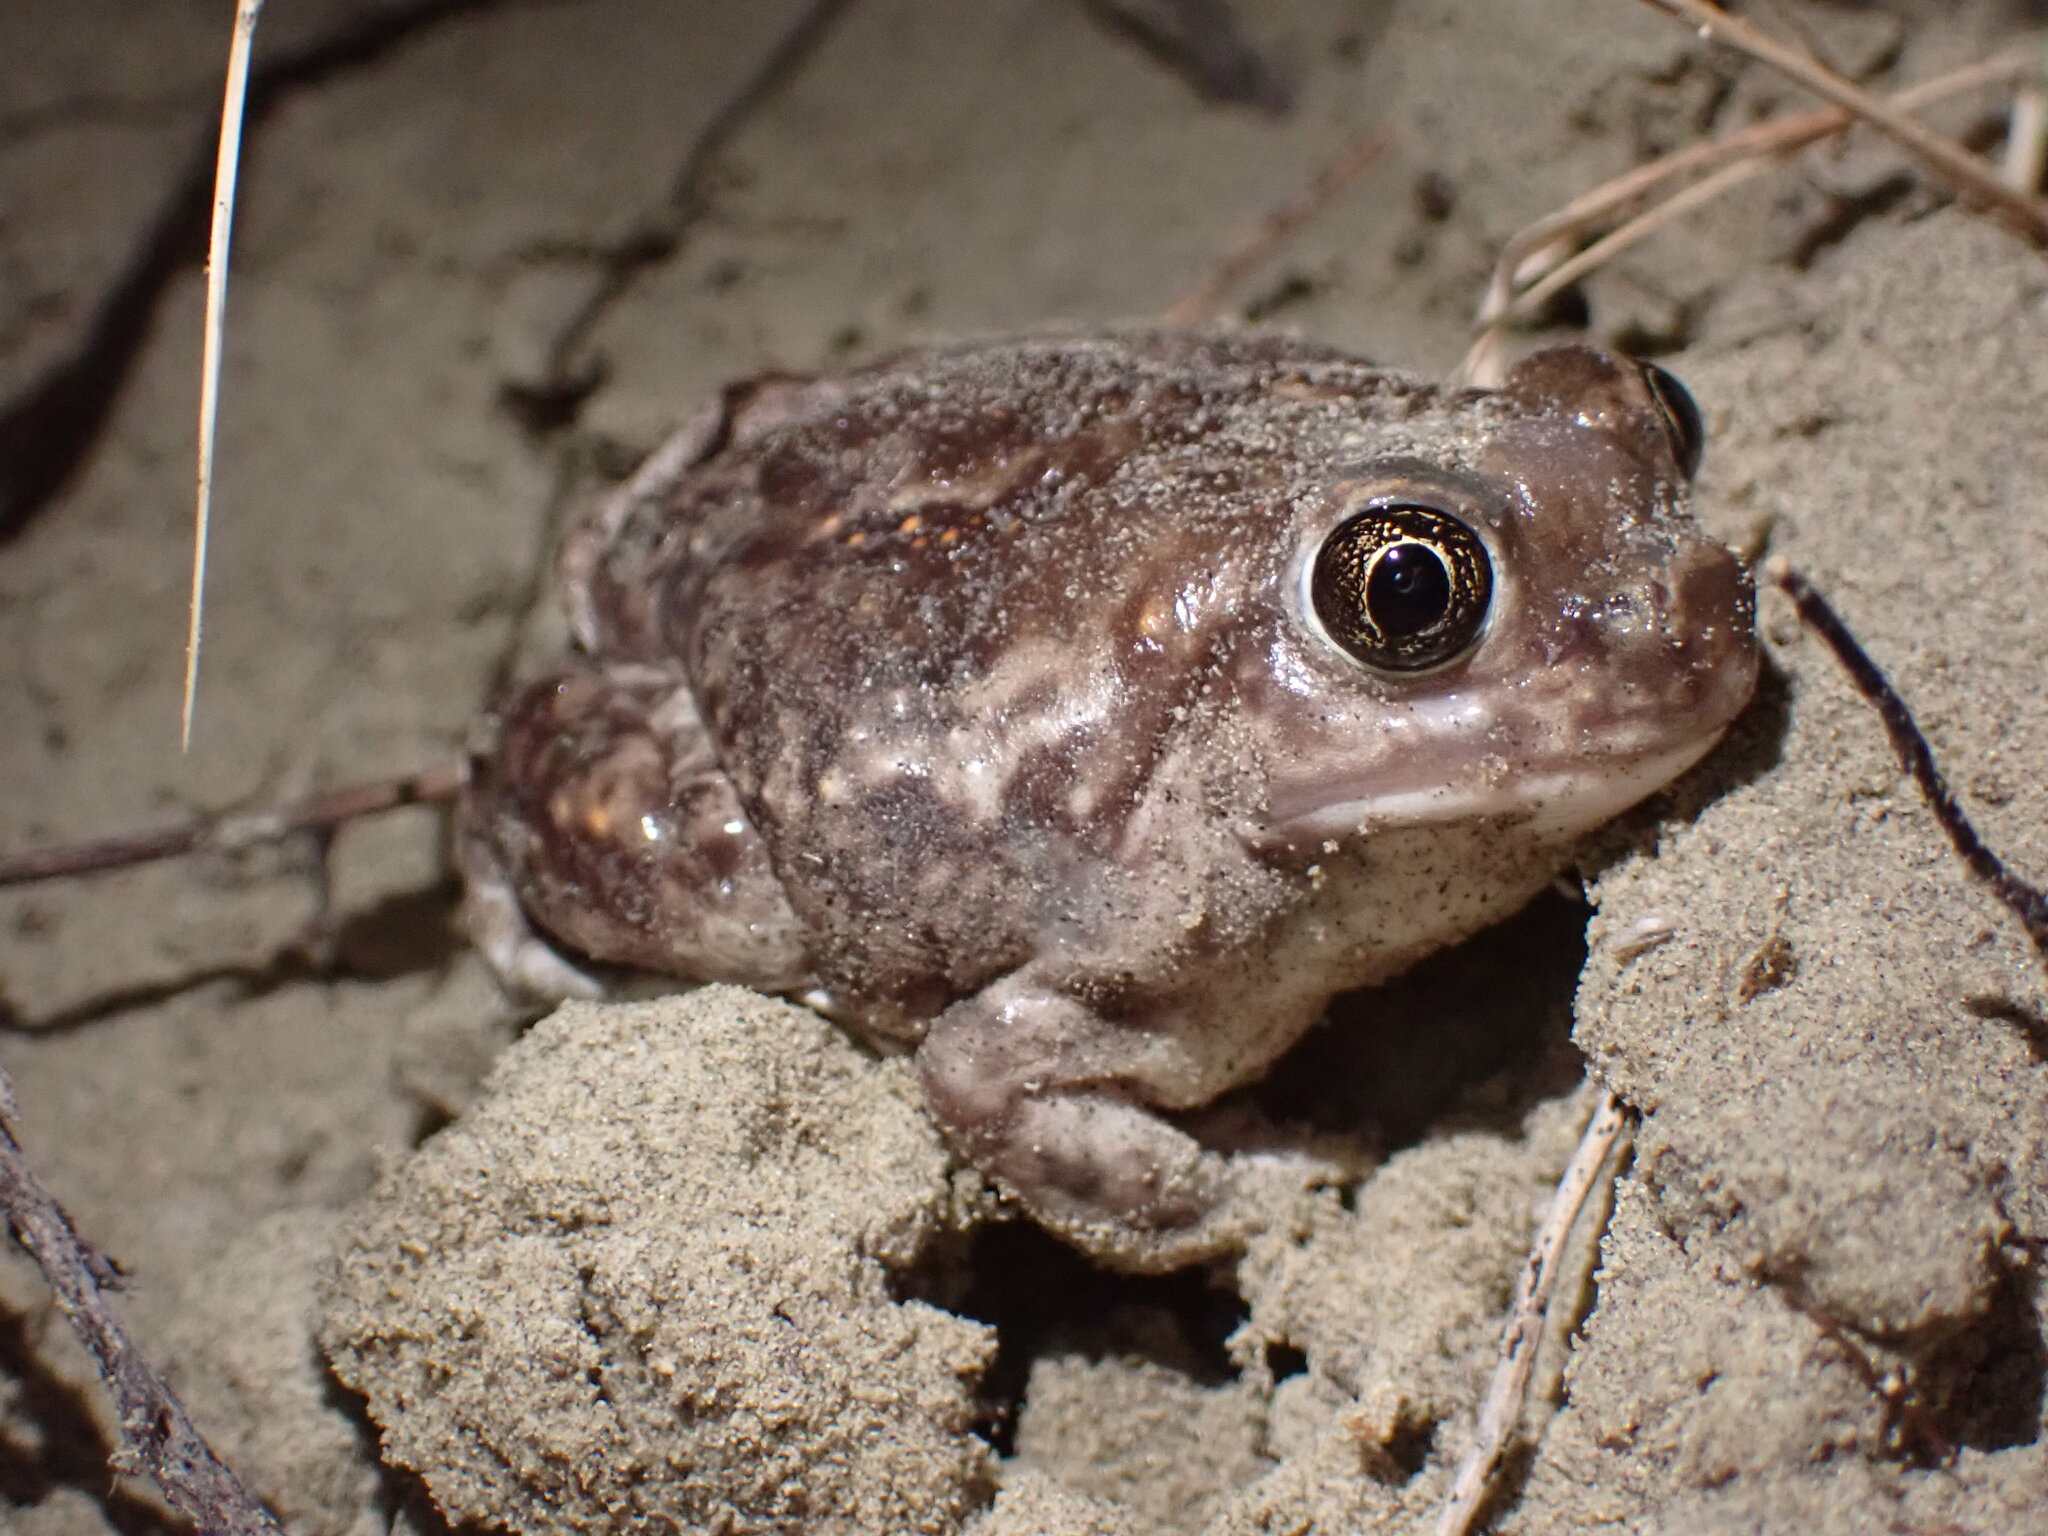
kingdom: Animalia
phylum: Chordata
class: Amphibia
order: Anura
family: Scaphiopodidae
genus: Spea
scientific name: Spea bombifrons
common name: Plains spadefoot
